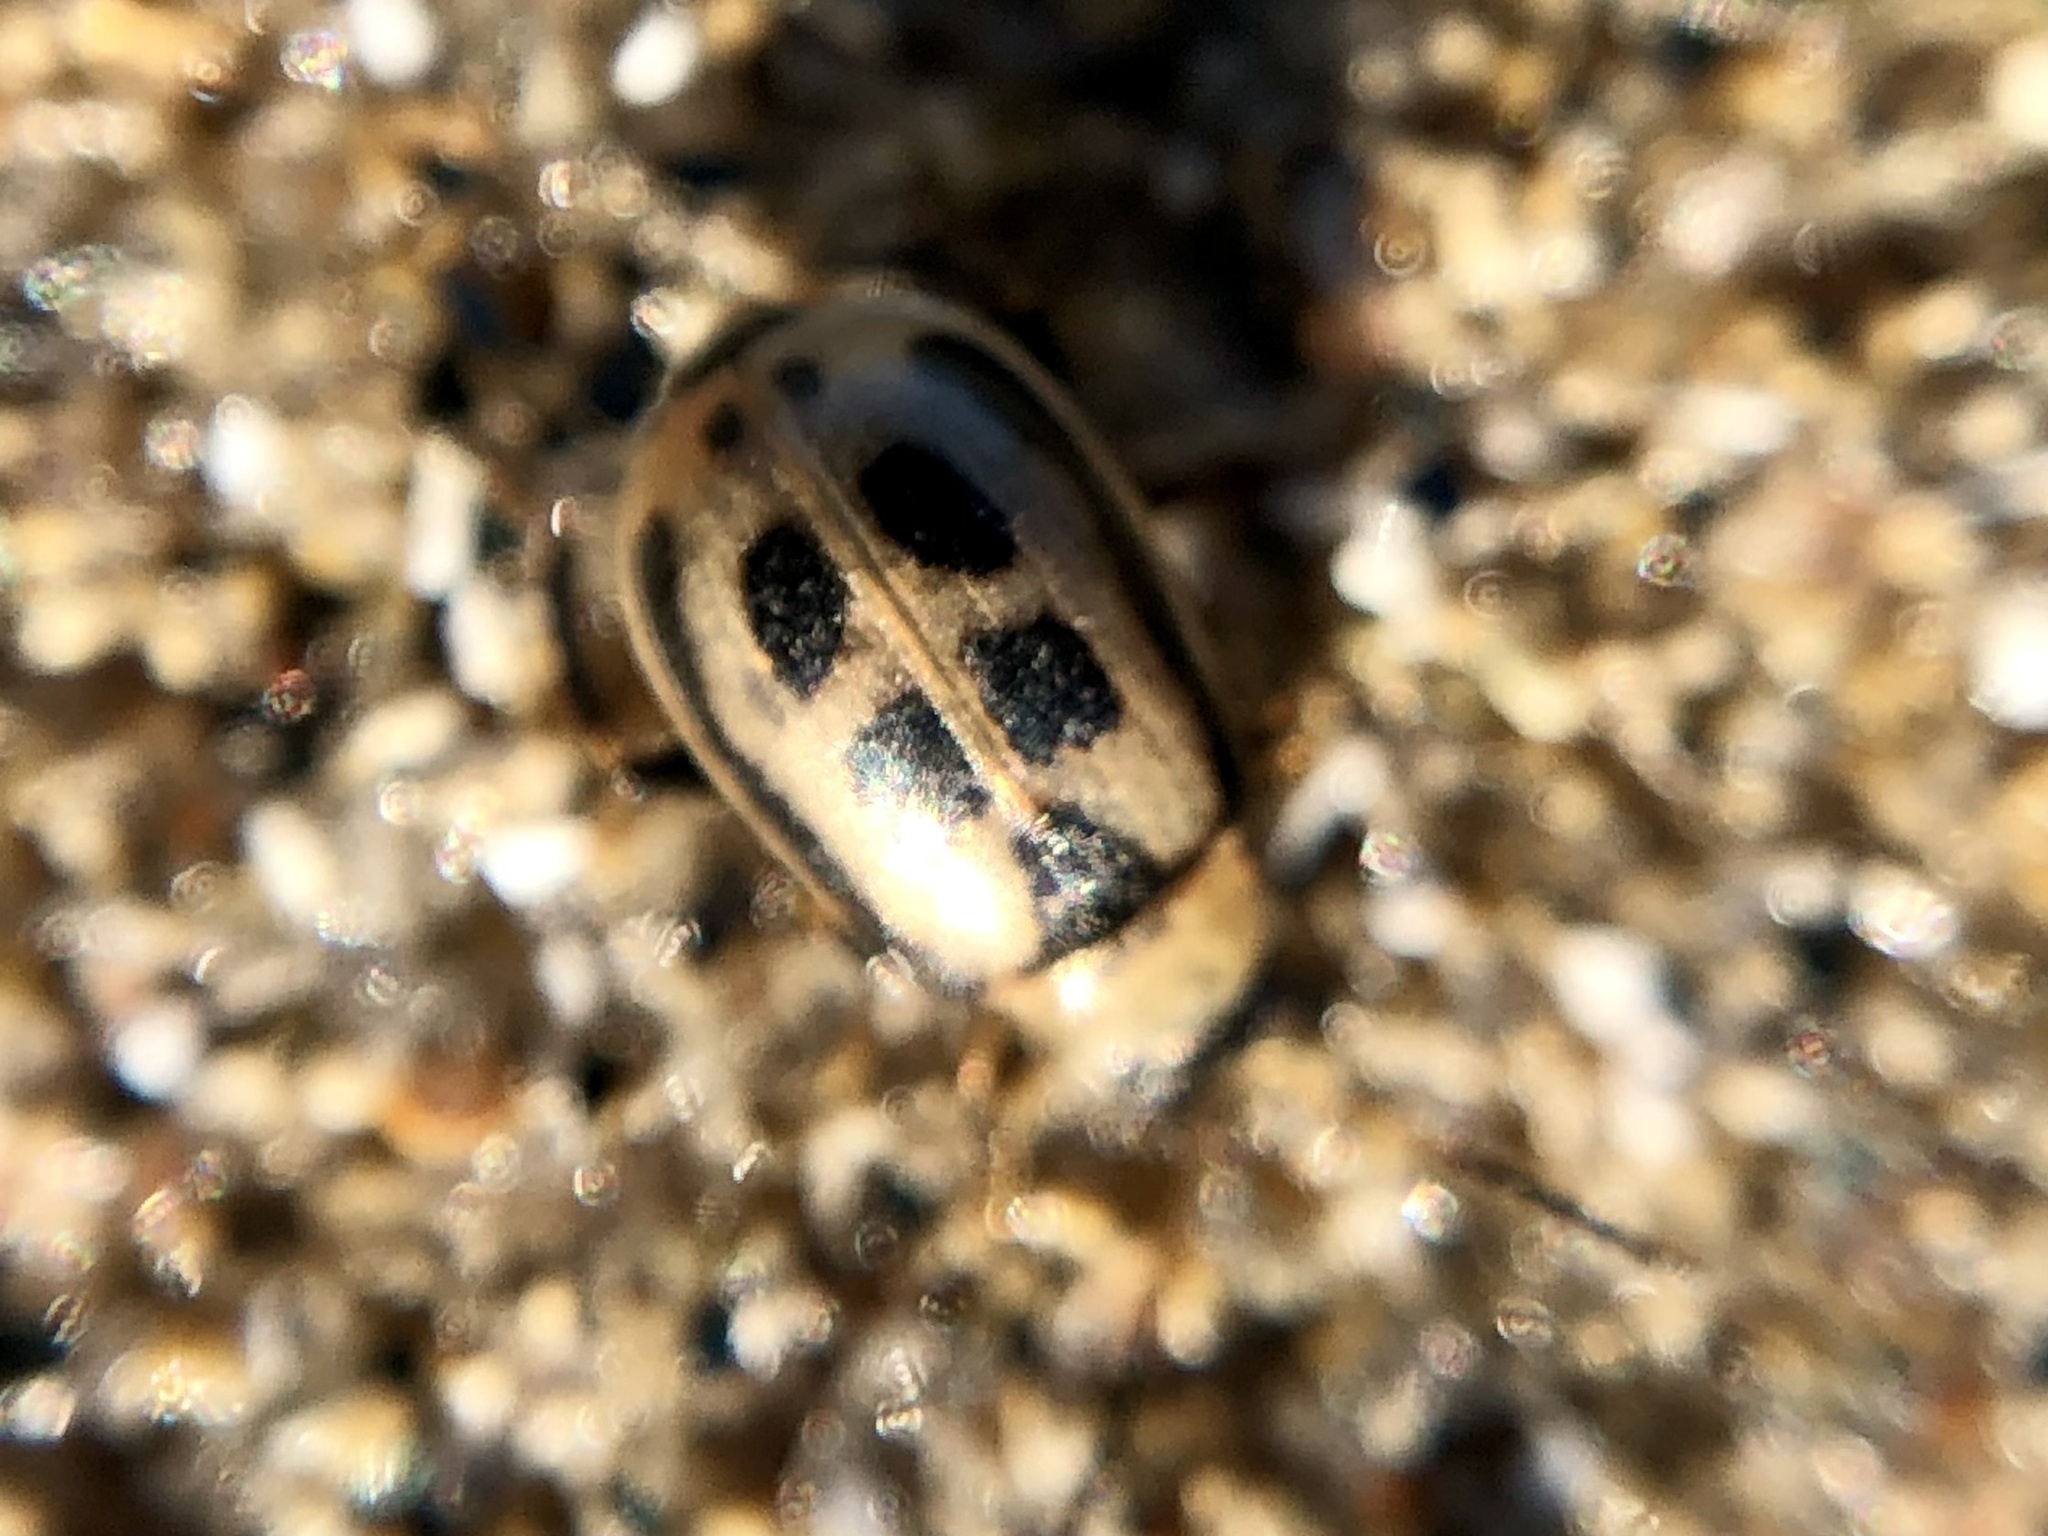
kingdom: Animalia
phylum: Arthropoda
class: Insecta
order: Coleoptera
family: Chrysomelidae
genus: Cerotoma
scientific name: Cerotoma trifurcata
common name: Bean leaf beetle
